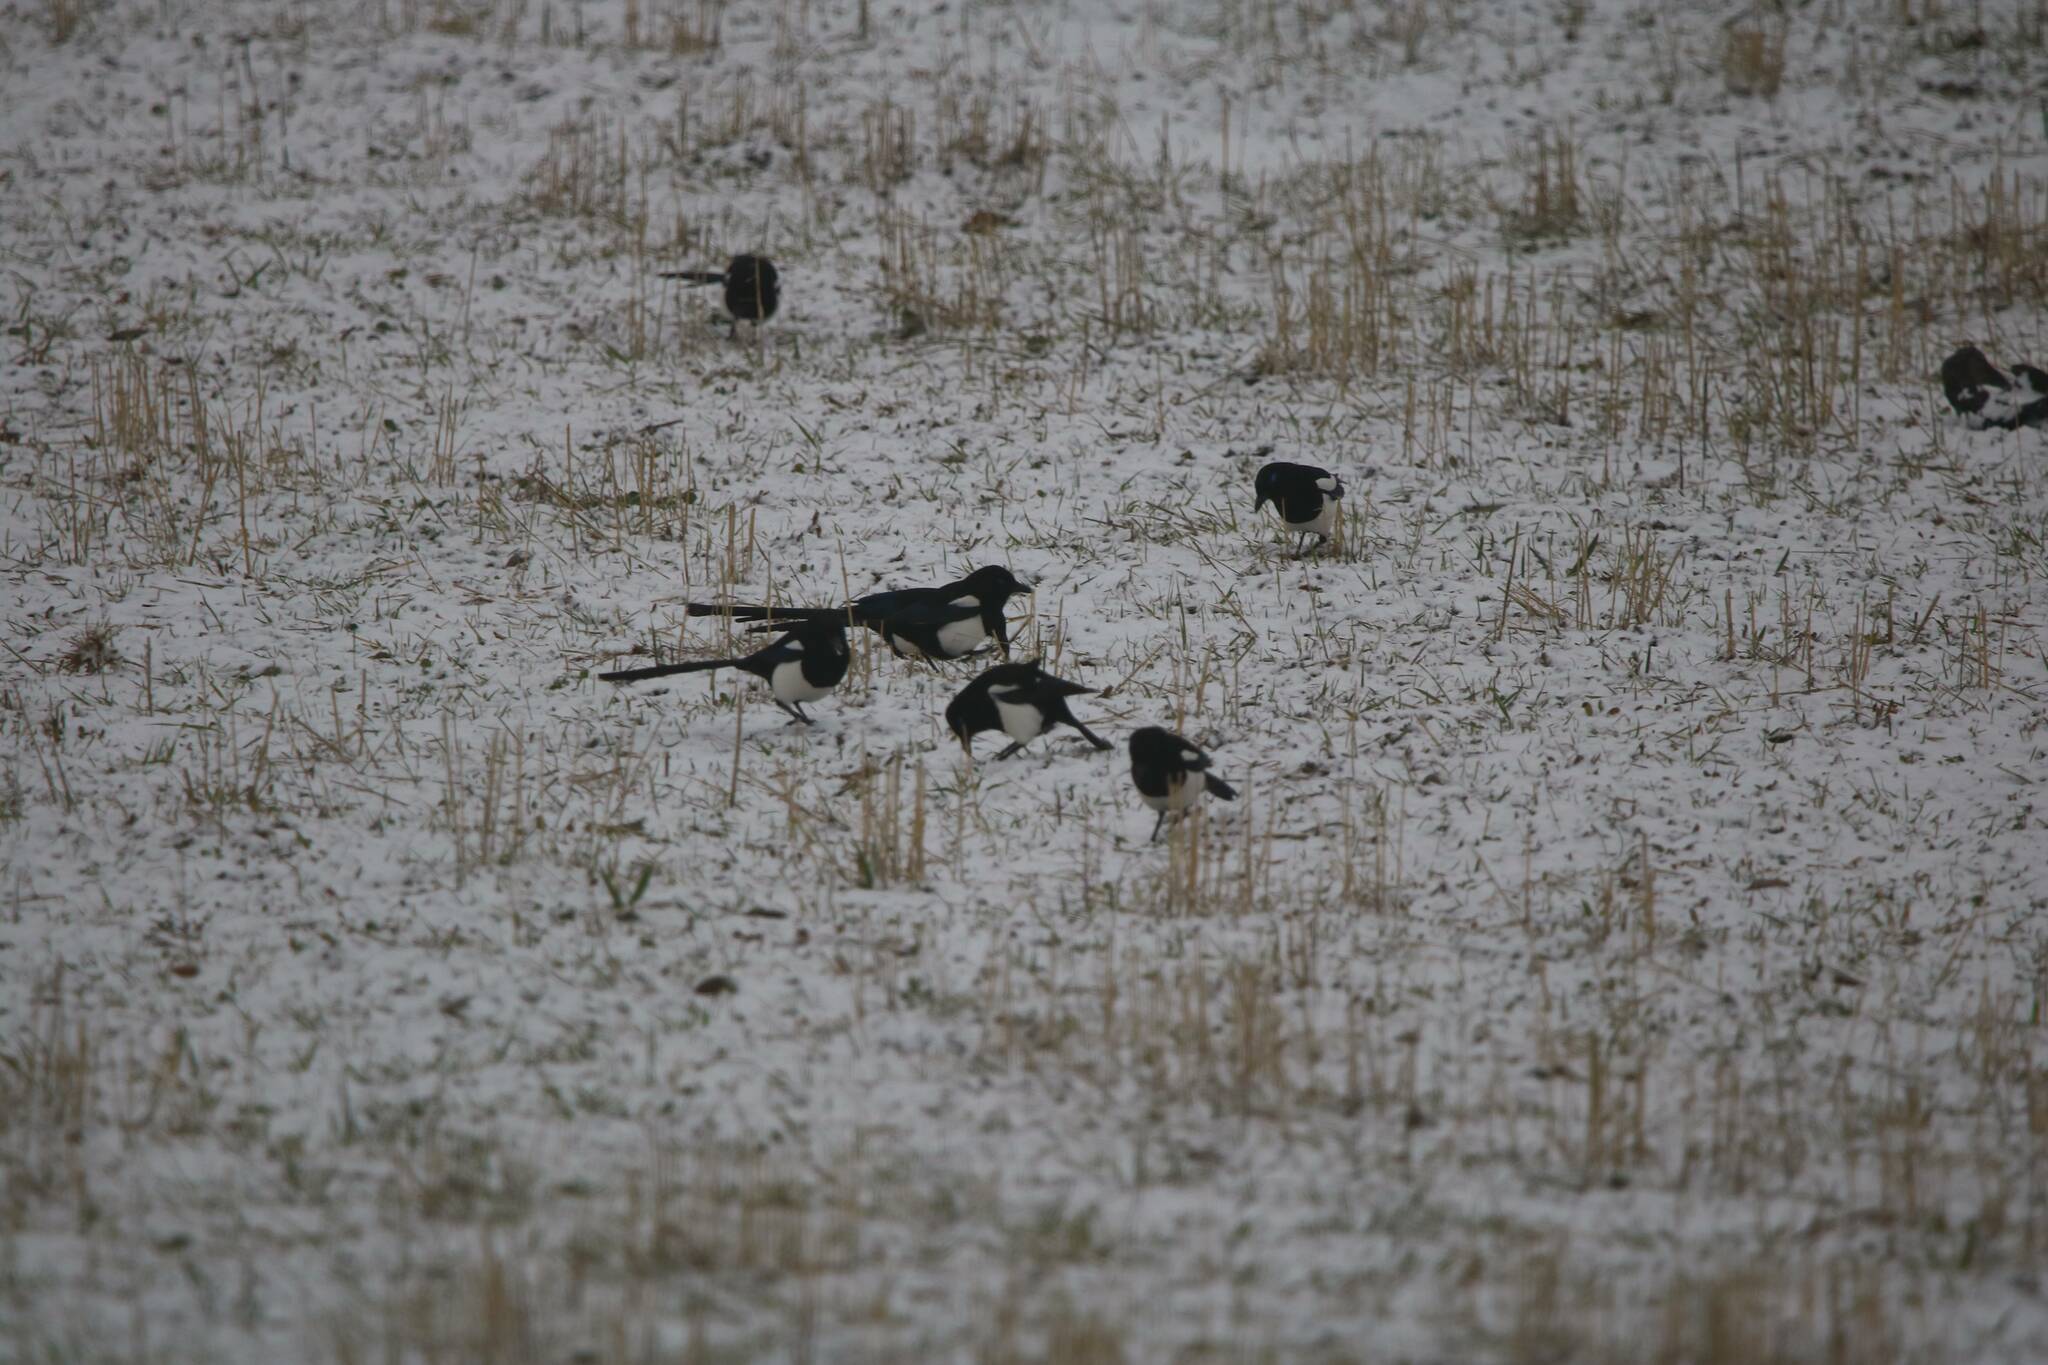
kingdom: Animalia
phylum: Chordata
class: Aves
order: Passeriformes
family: Corvidae
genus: Pica
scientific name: Pica mauritanica
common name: Maghreb magpie
